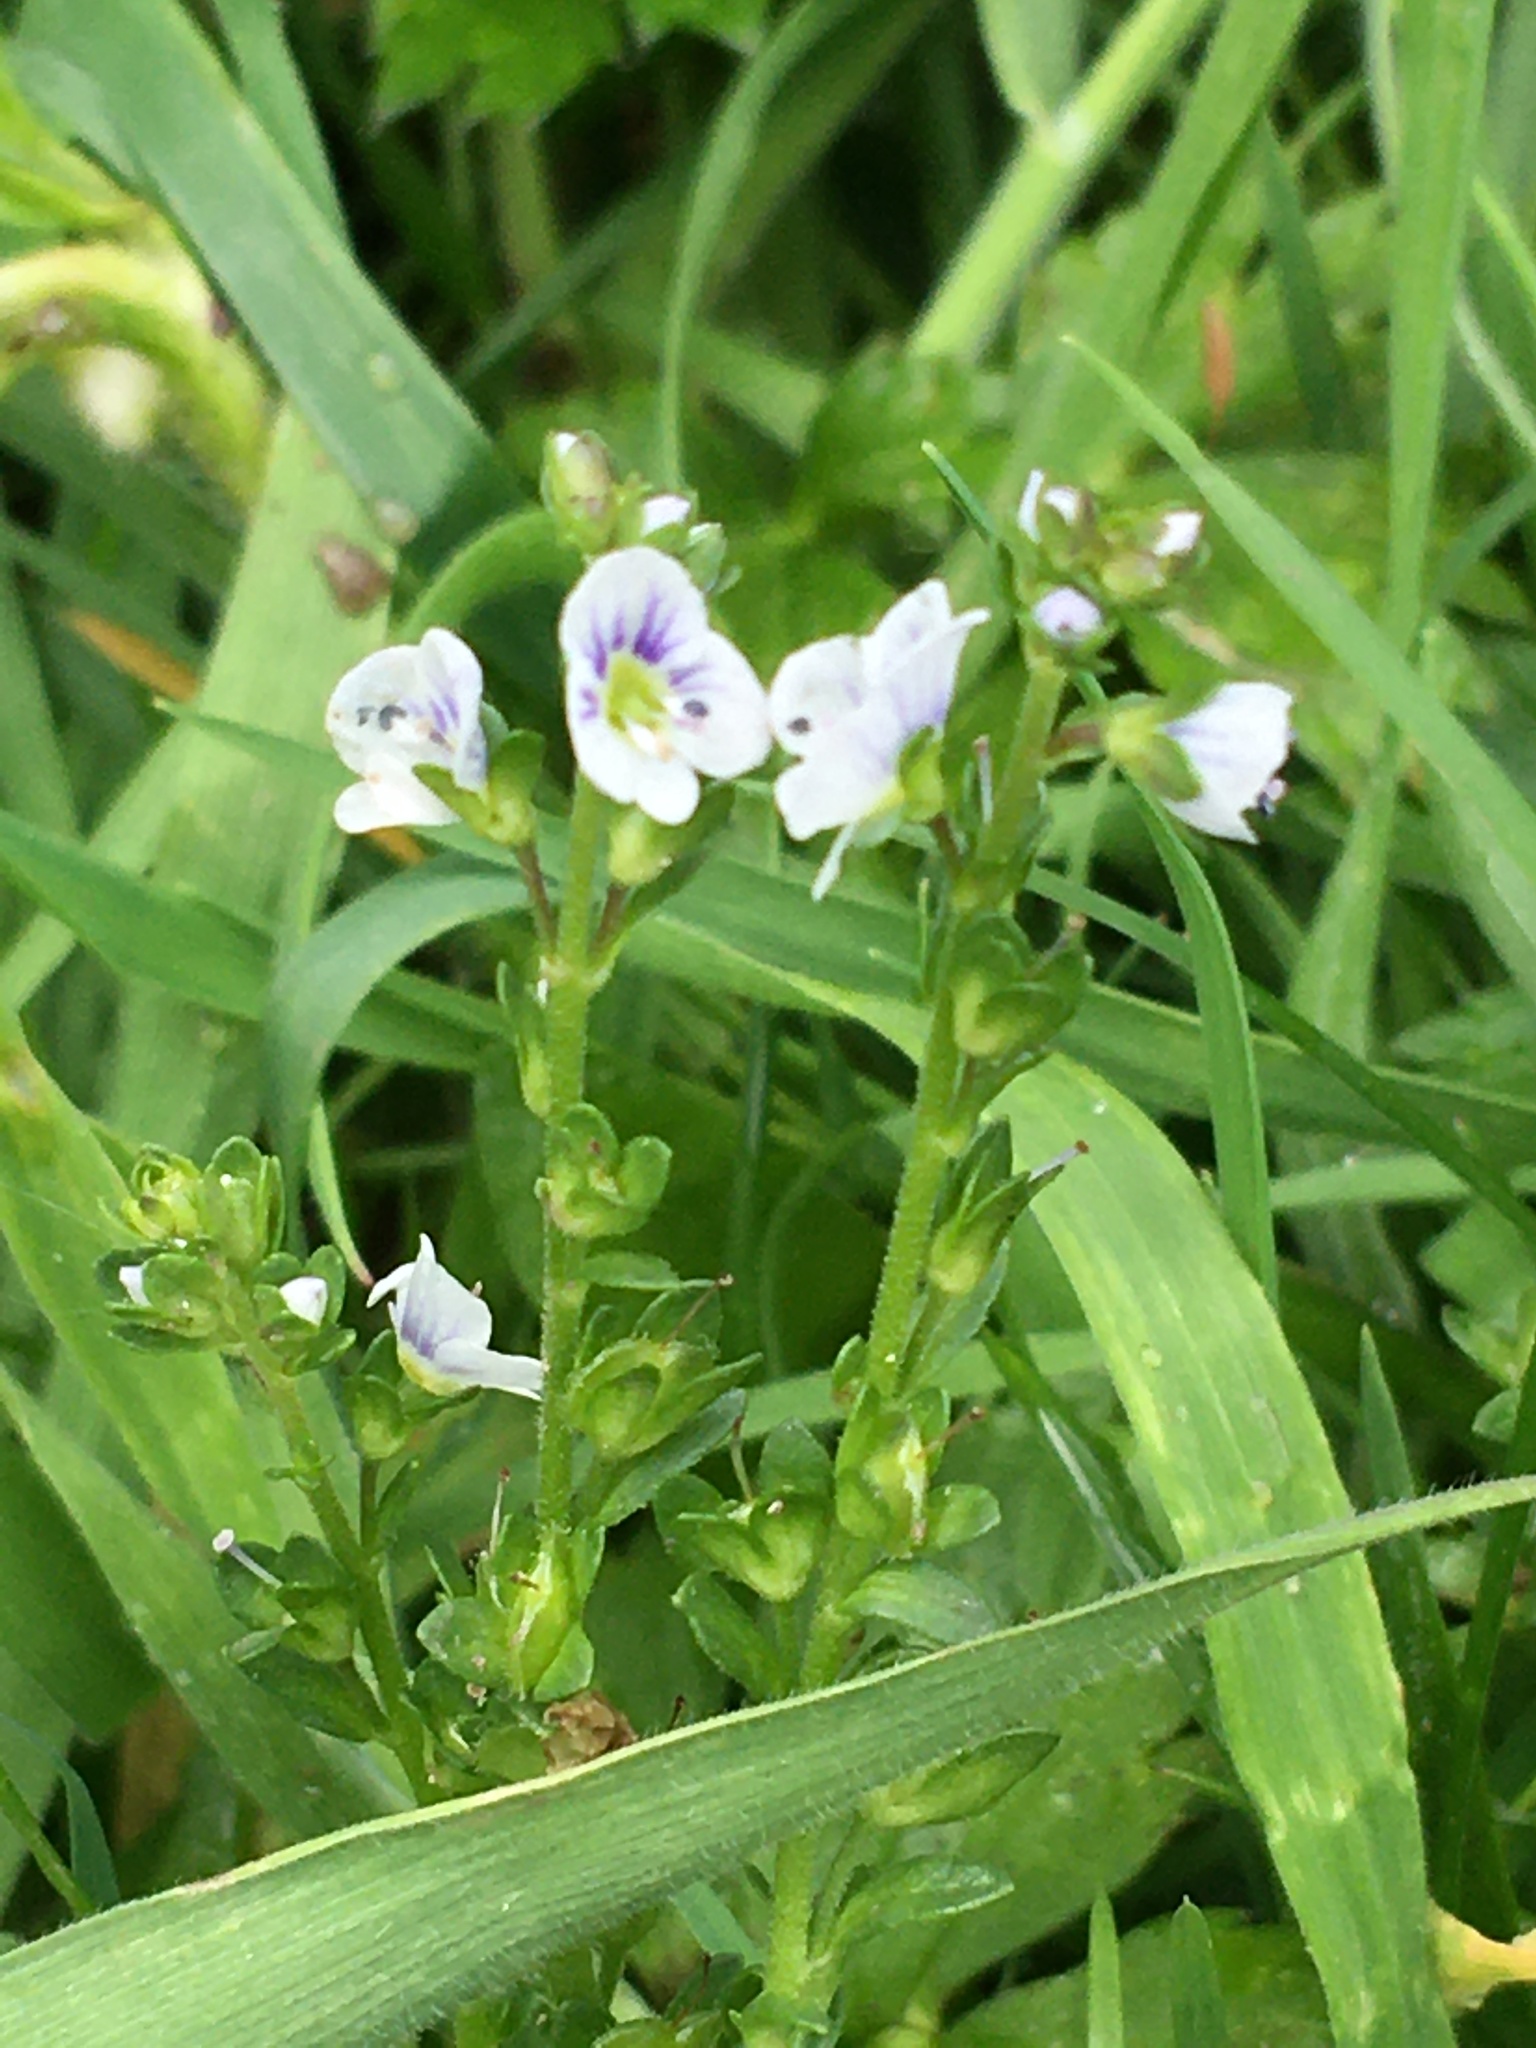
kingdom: Plantae
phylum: Tracheophyta
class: Magnoliopsida
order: Lamiales
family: Plantaginaceae
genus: Veronica
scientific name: Veronica serpyllifolia
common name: Thyme-leaved speedwell
